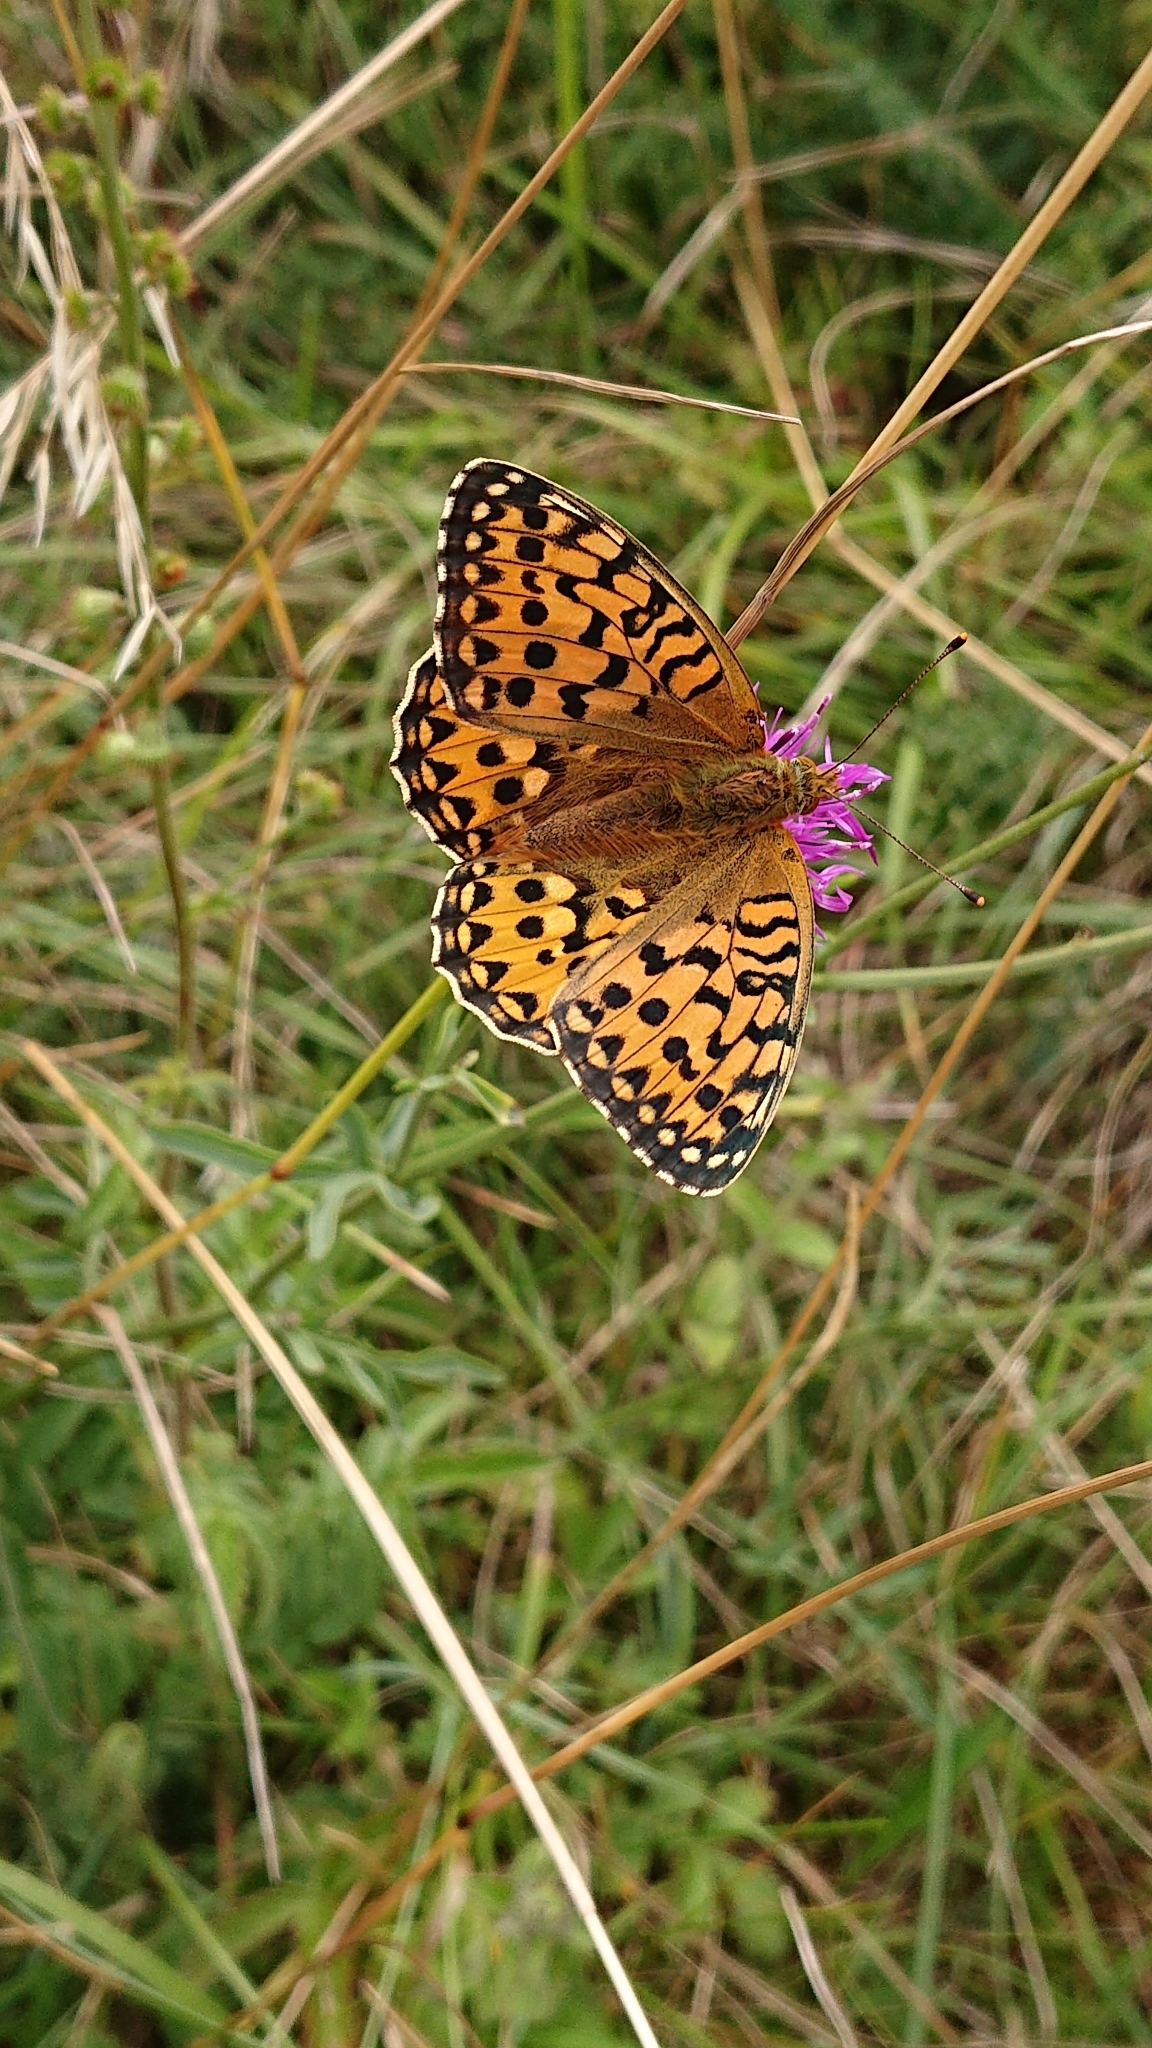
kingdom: Animalia
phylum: Arthropoda
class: Insecta
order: Lepidoptera
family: Nymphalidae
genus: Speyeria
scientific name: Speyeria aglaja
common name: Dark green fritillary
